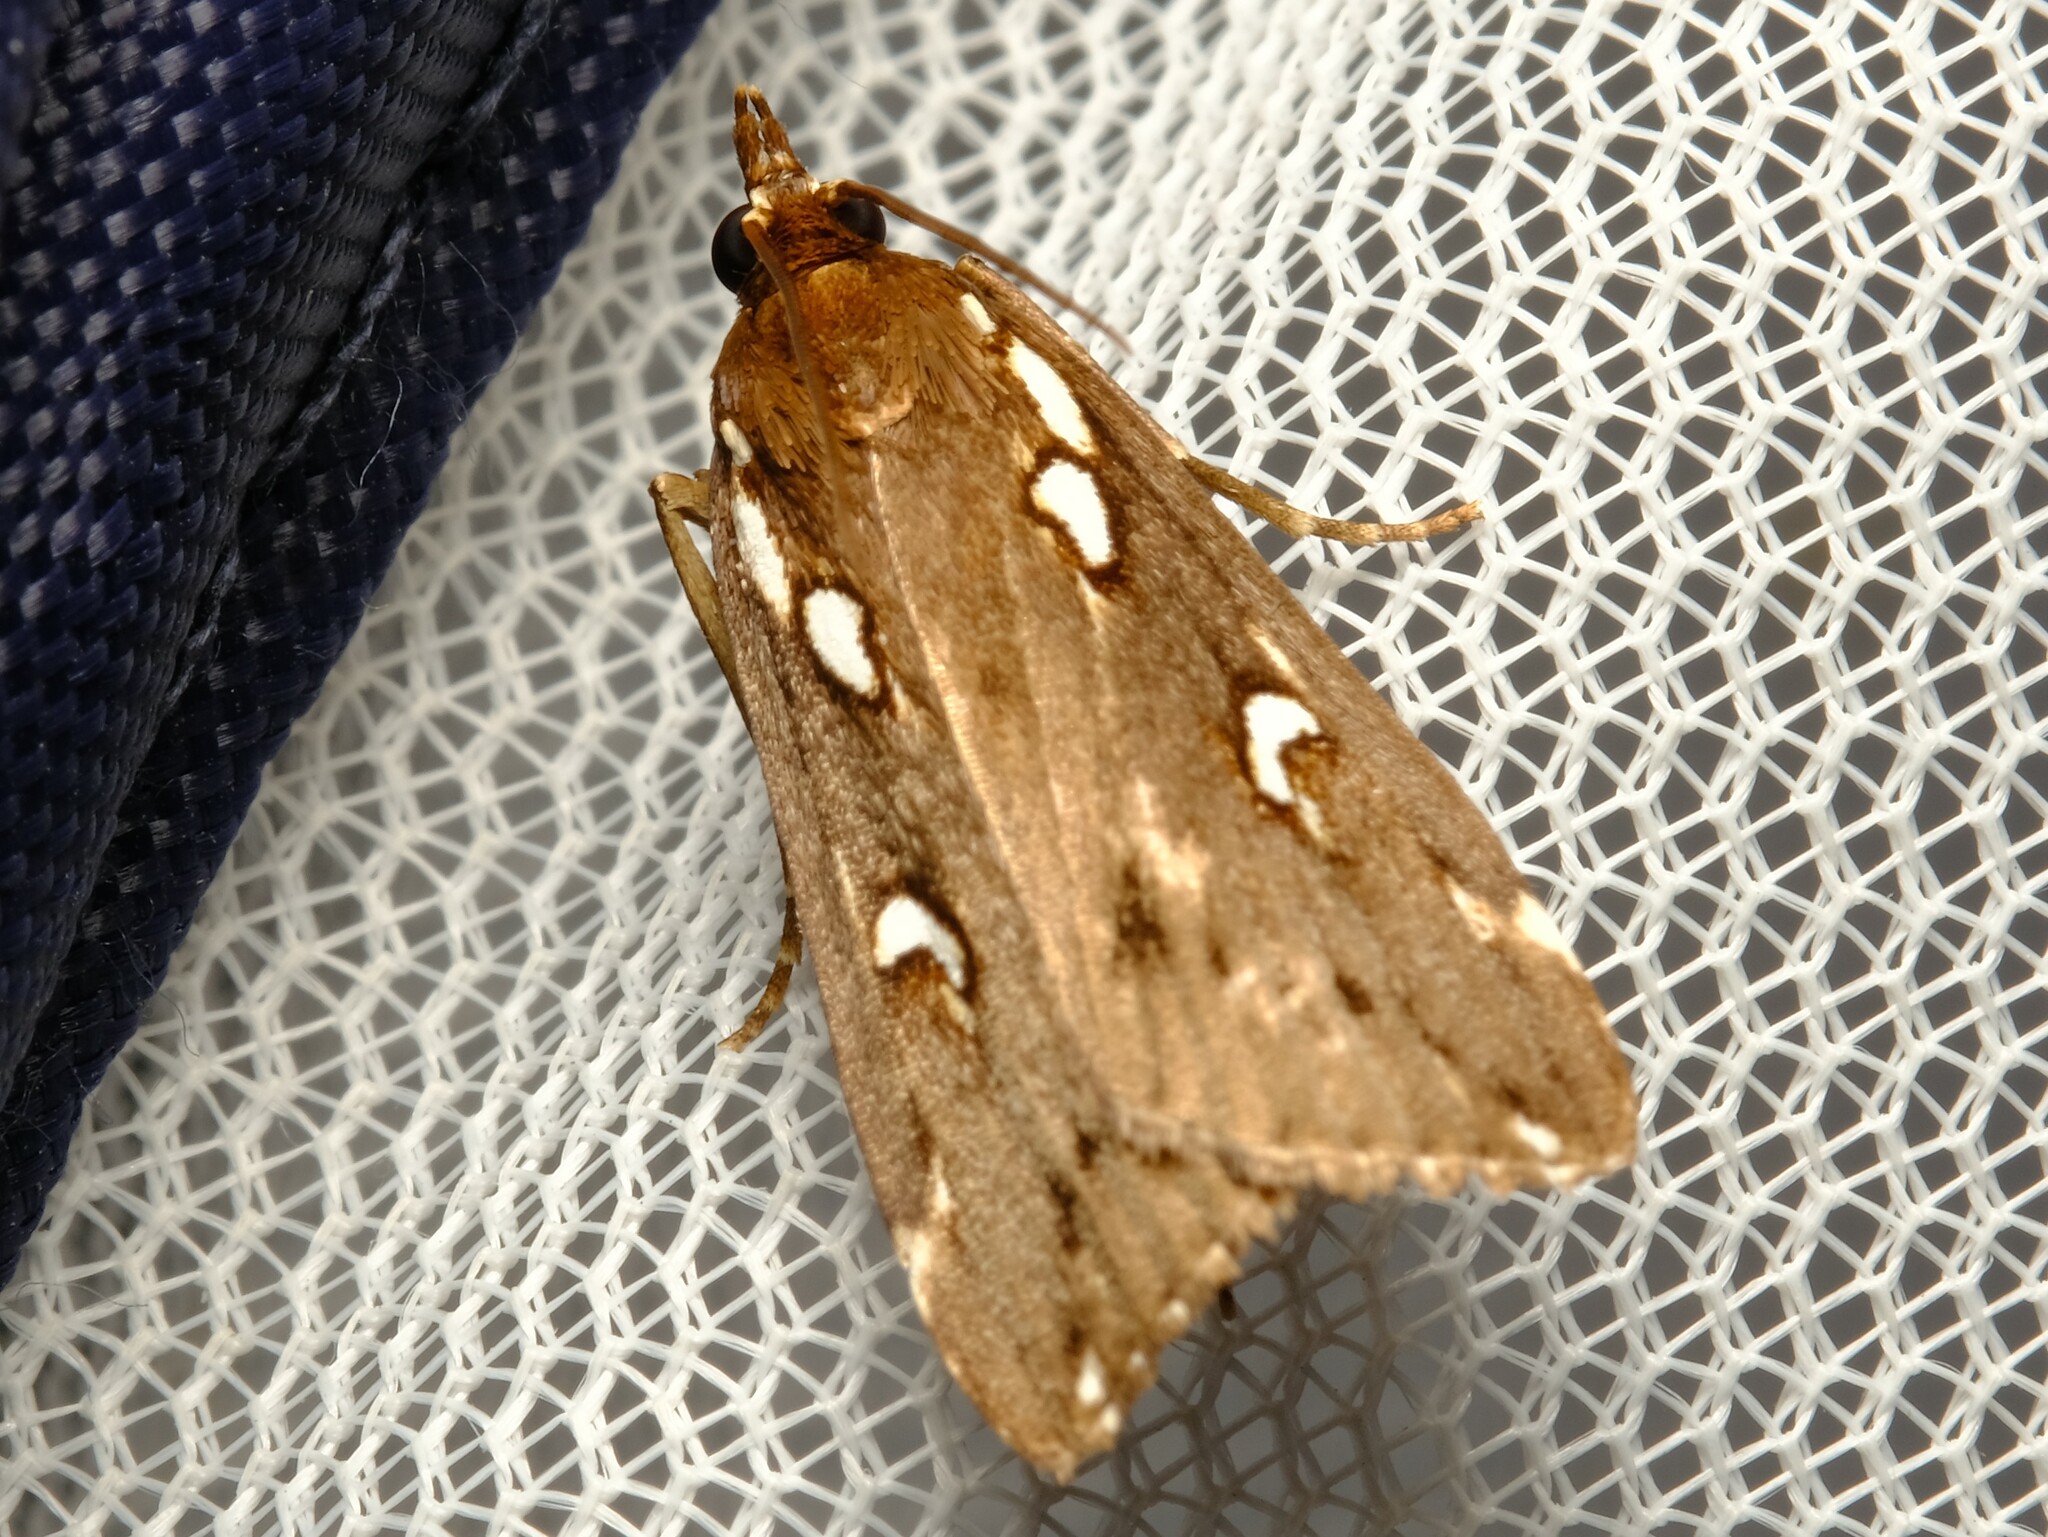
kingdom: Animalia
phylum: Arthropoda
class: Insecta
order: Lepidoptera
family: Crambidae
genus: Perimeceta
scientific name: Perimeceta niphotypa
